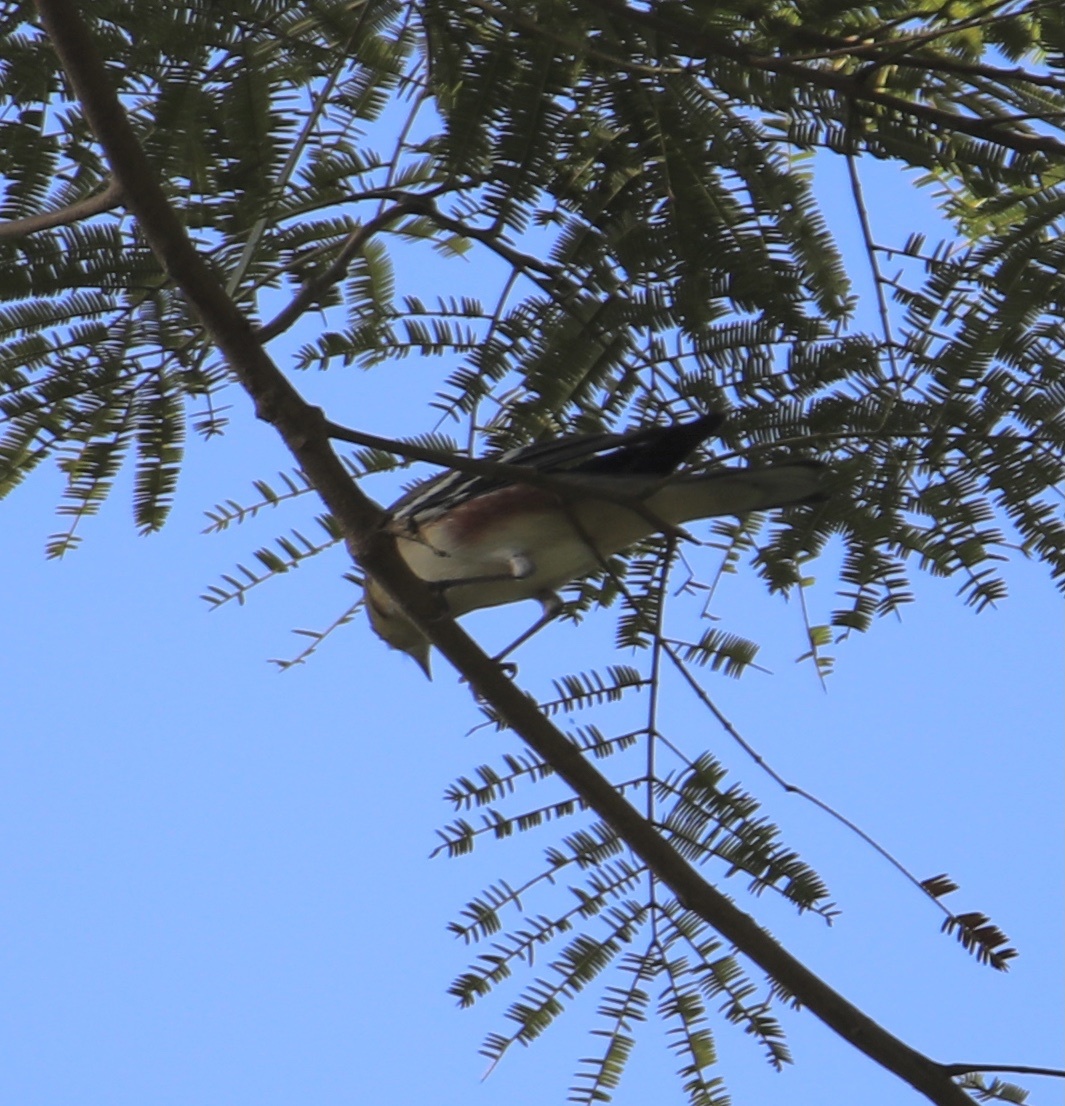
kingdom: Animalia
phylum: Chordata
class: Aves
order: Passeriformes
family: Parulidae
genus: Setophaga
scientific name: Setophaga pensylvanica
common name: Chestnut-sided warbler
